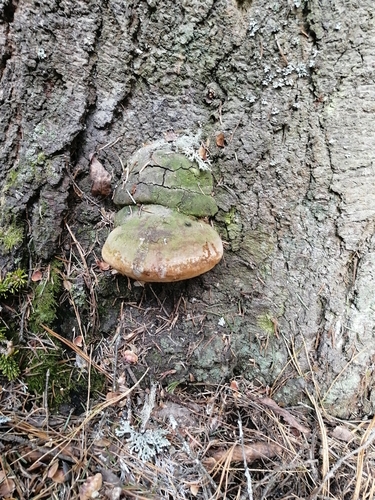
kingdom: Fungi
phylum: Basidiomycota
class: Agaricomycetes
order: Hymenochaetales
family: Hymenochaetaceae
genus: Phellinus
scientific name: Phellinus hartigii
